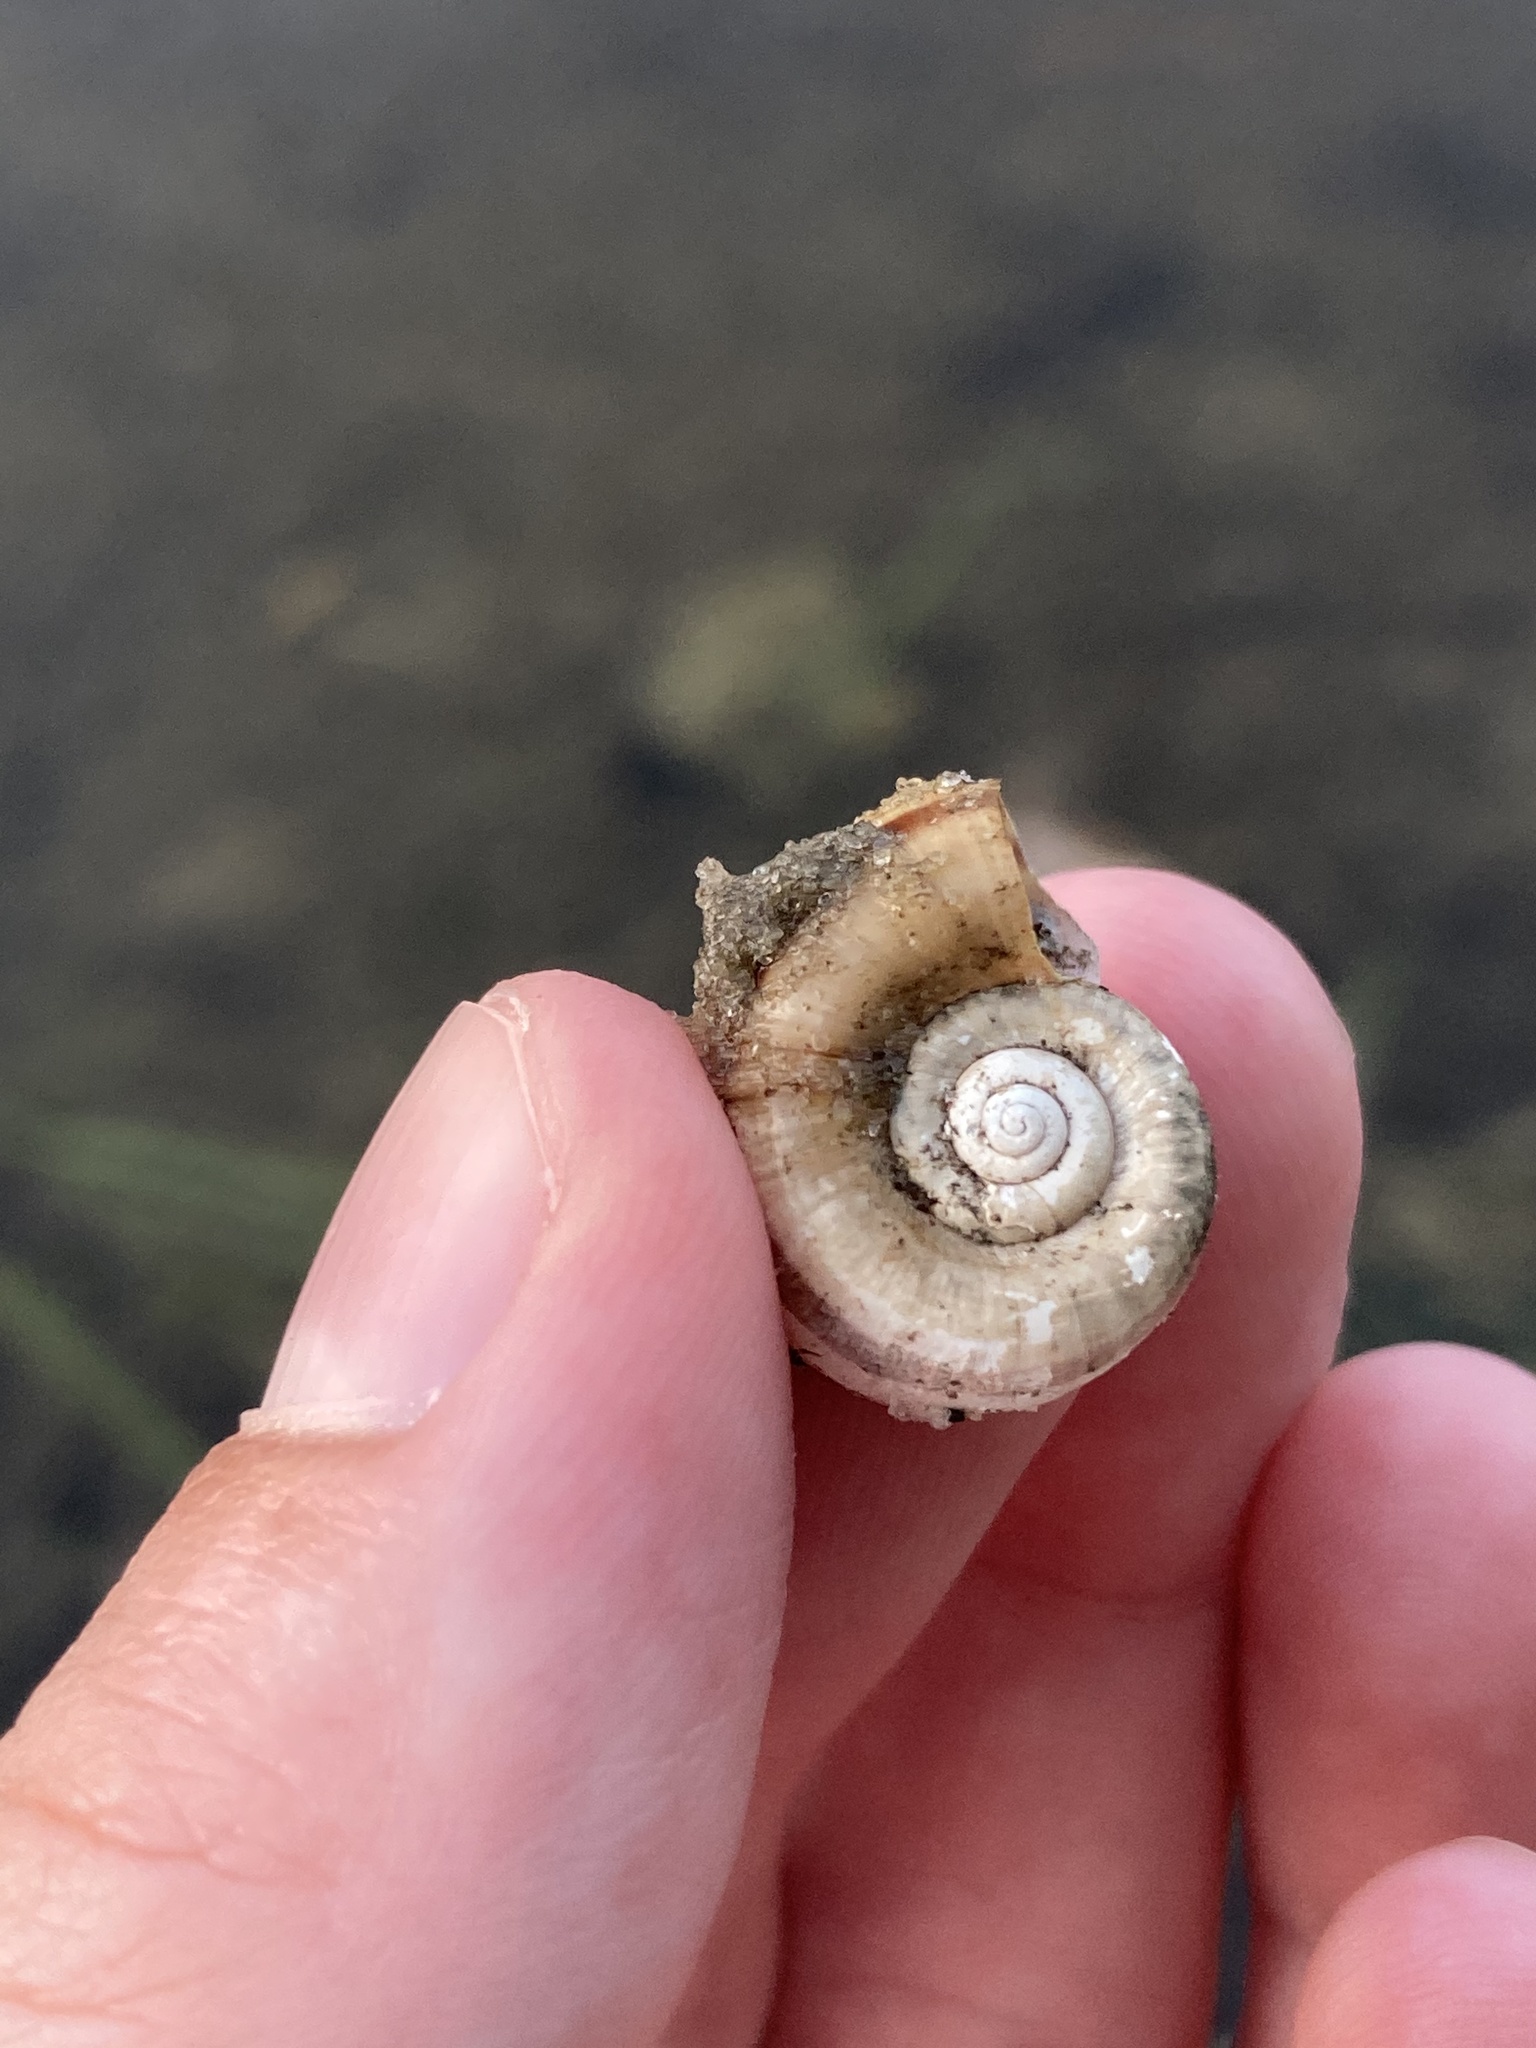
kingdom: Animalia
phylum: Mollusca
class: Gastropoda
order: Architaenioglossa
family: Ampullariidae
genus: Marisa
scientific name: Marisa cornuarietis
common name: Giant ramshorn snail
